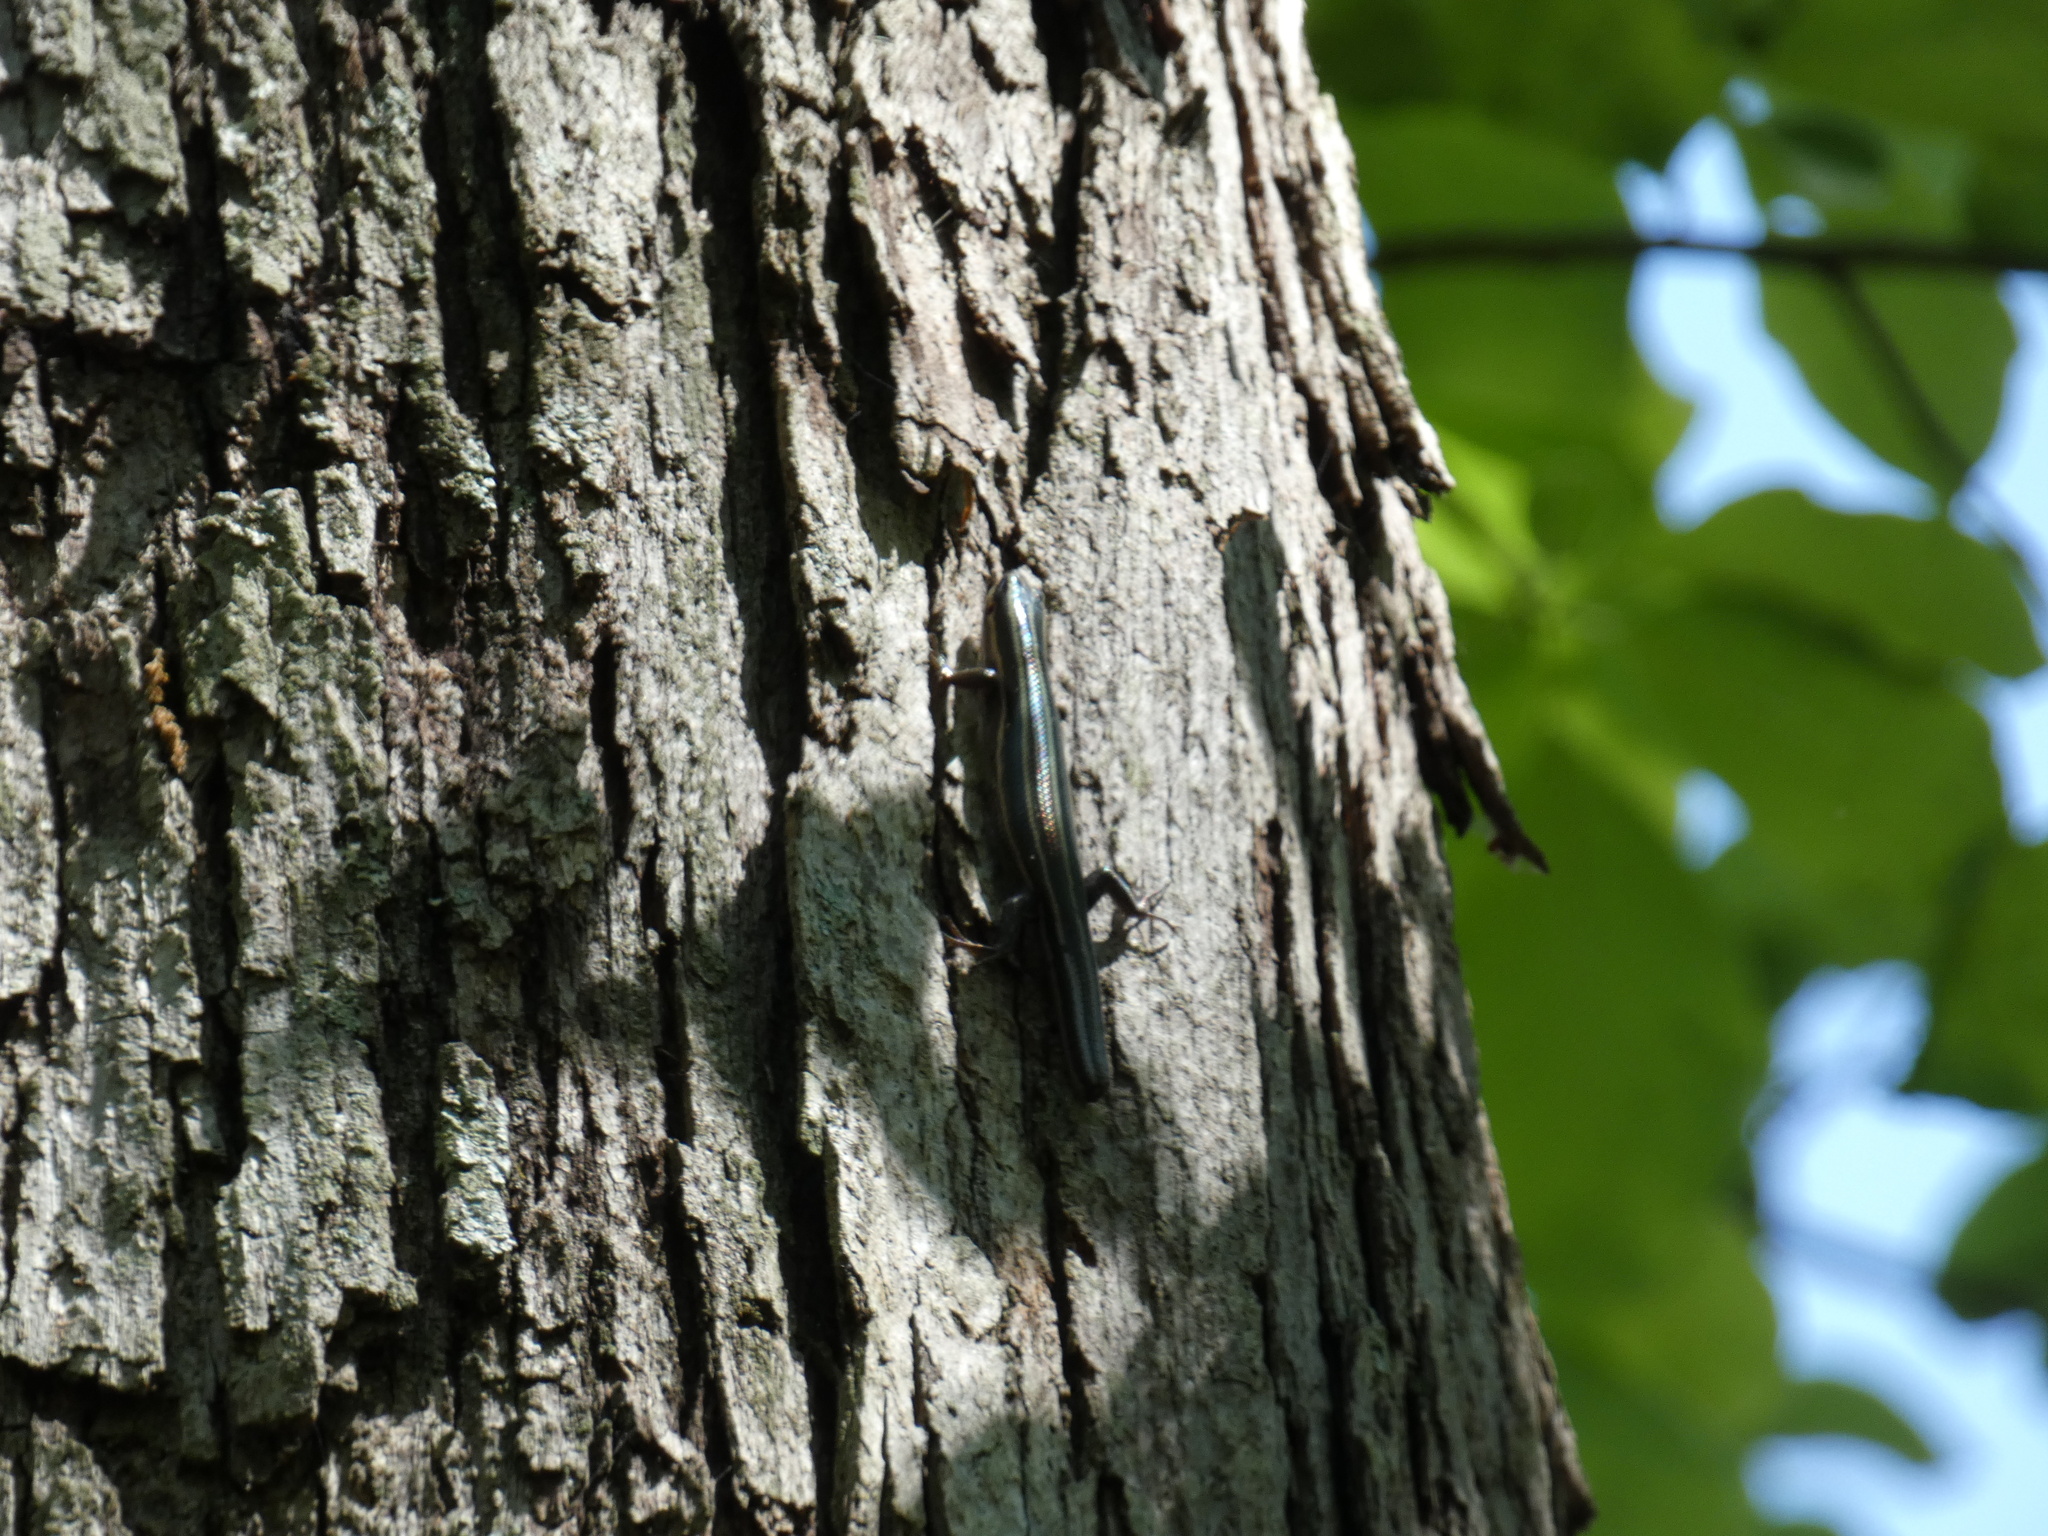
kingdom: Animalia
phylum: Chordata
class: Squamata
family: Scincidae
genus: Plestiodon
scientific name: Plestiodon fasciatus
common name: Five-lined skink
